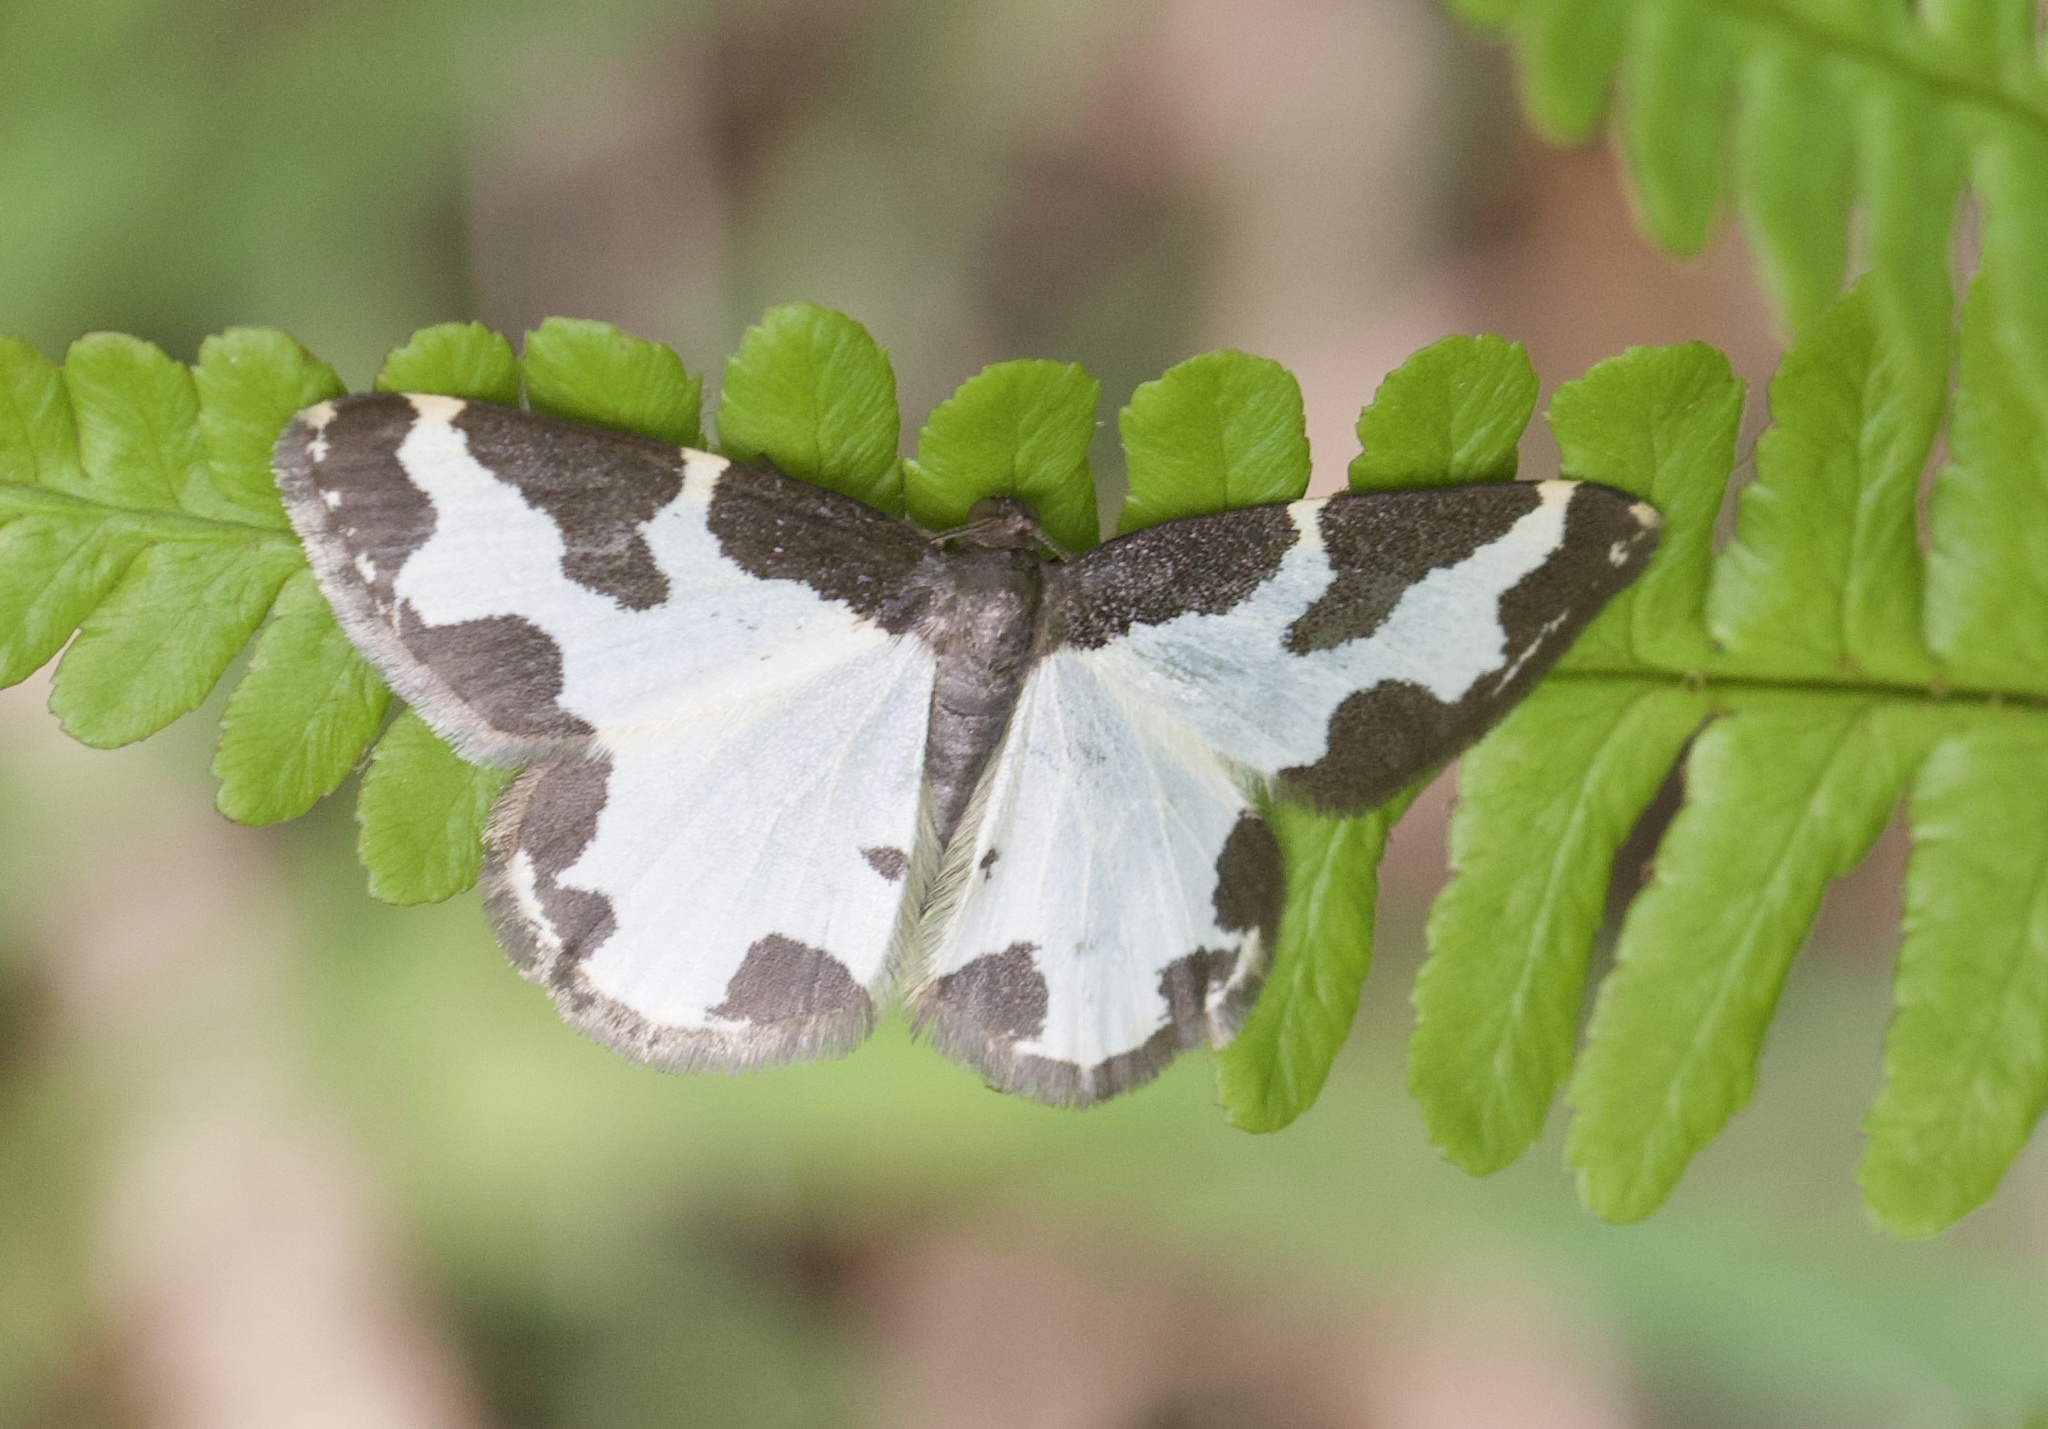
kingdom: Animalia
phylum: Arthropoda
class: Insecta
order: Lepidoptera
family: Geometridae
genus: Lomaspilis
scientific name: Lomaspilis marginata
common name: Clouded border
